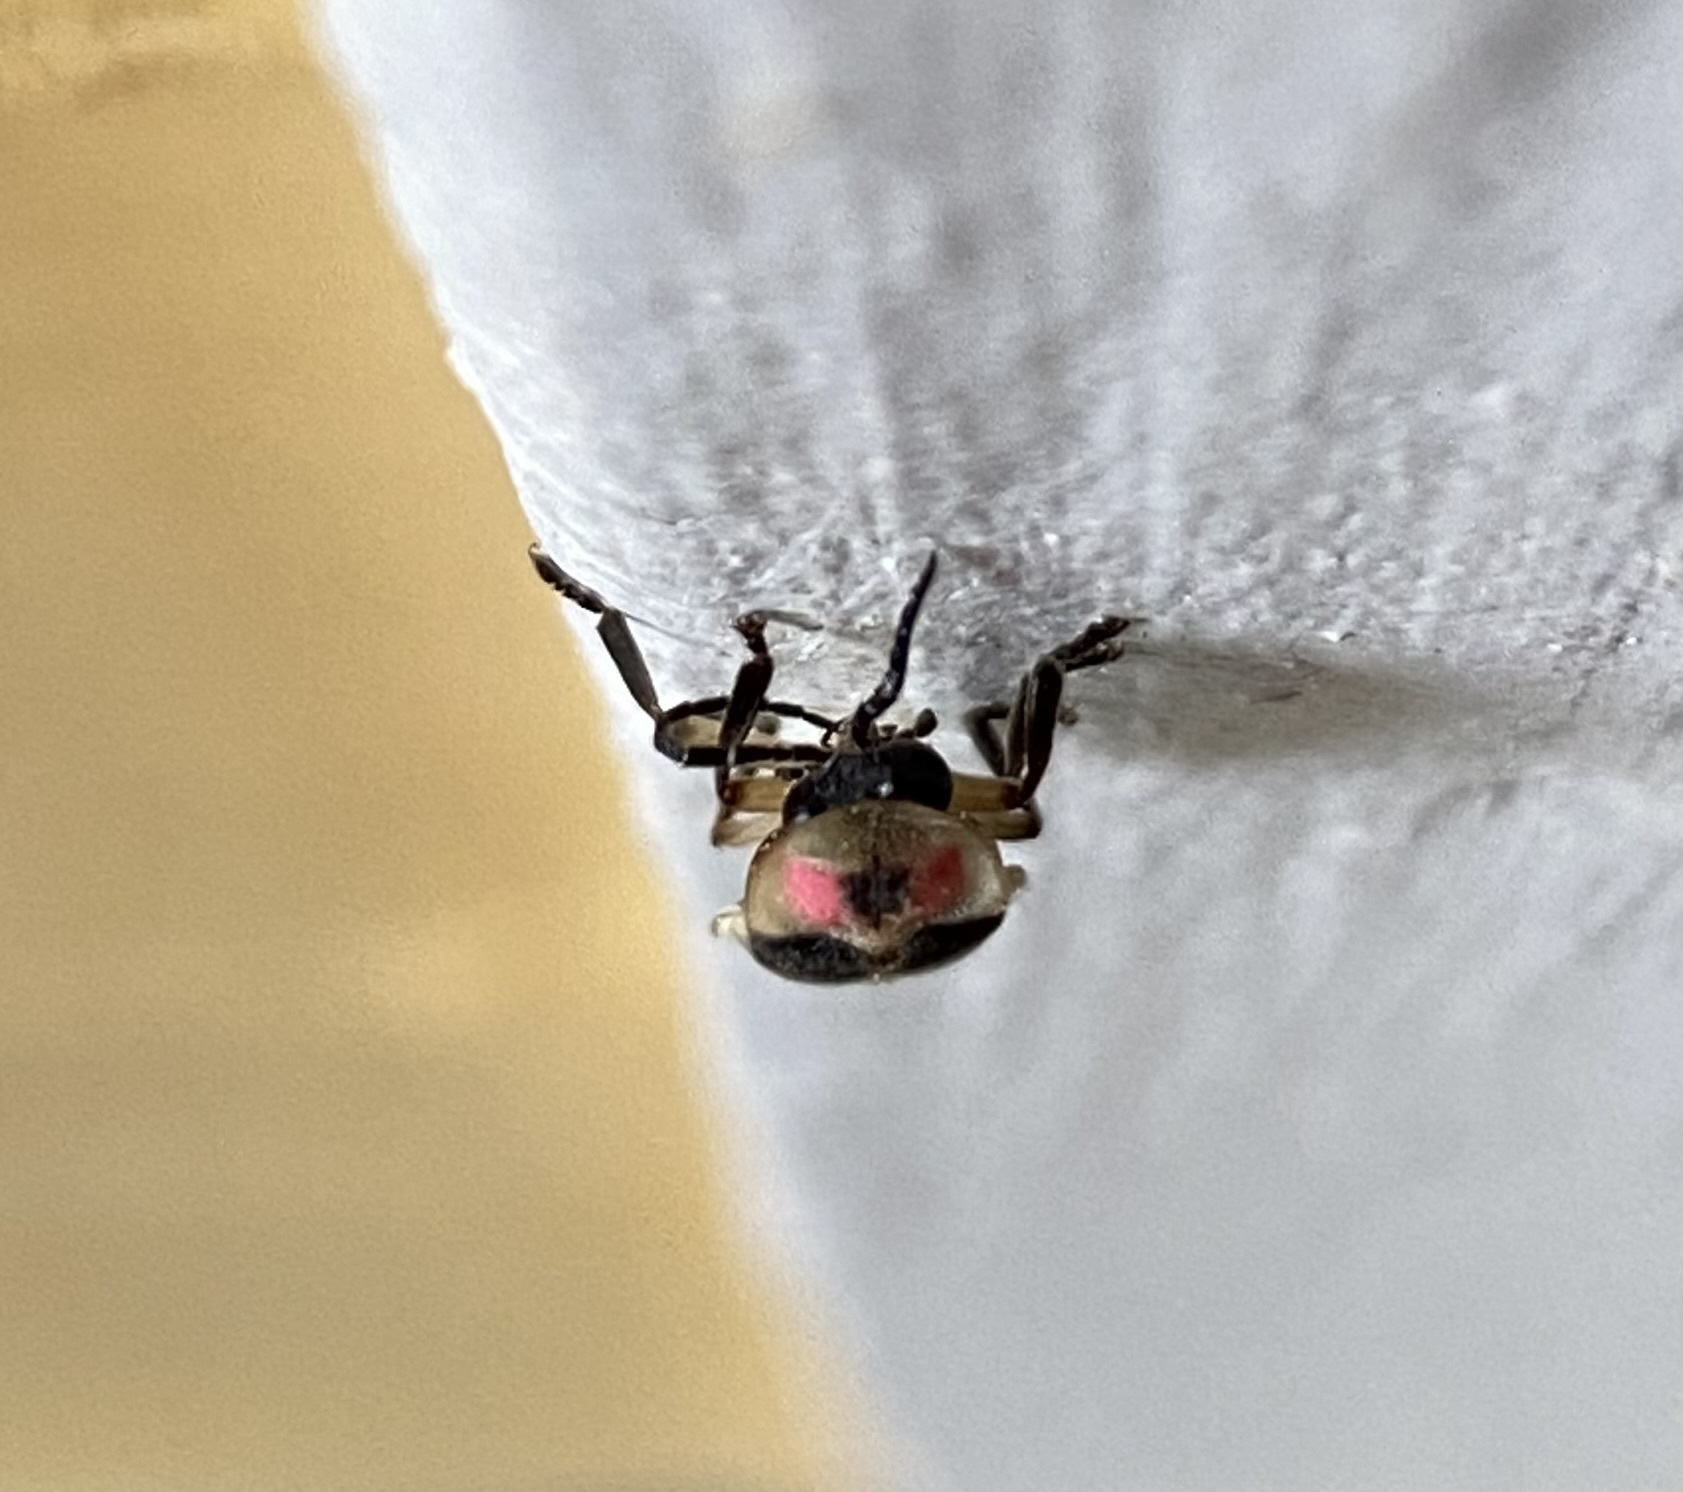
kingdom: Animalia
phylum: Arthropoda
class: Insecta
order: Coleoptera
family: Lampyridae
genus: Photinus
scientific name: Photinus pyralis
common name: Big dipper firefly
